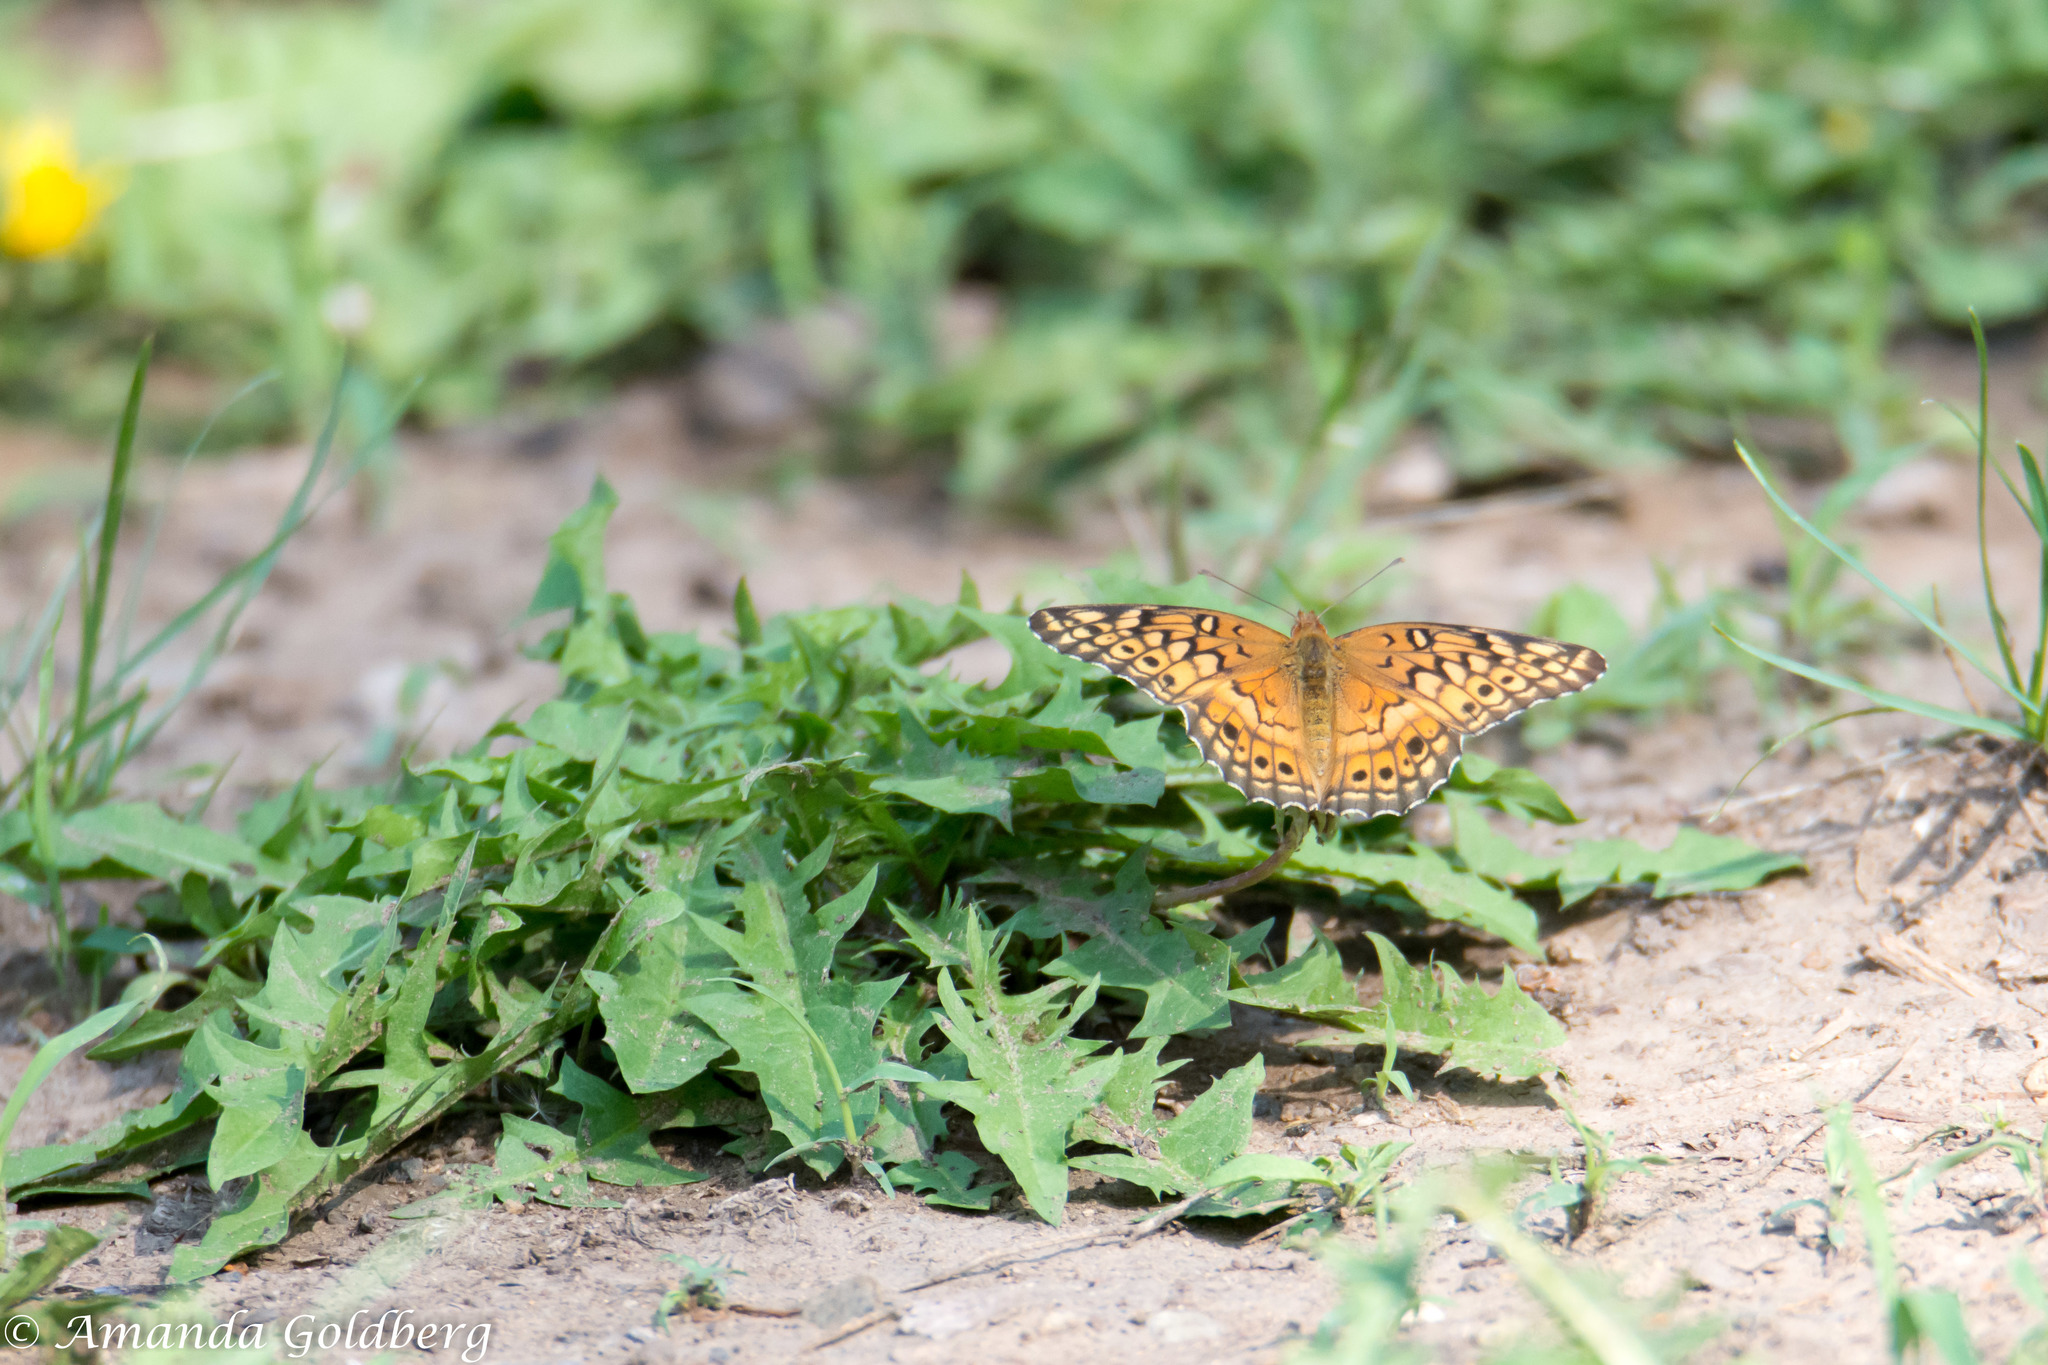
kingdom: Animalia
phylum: Arthropoda
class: Insecta
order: Lepidoptera
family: Nymphalidae
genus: Euptoieta
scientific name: Euptoieta claudia
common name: Variegated fritillary
